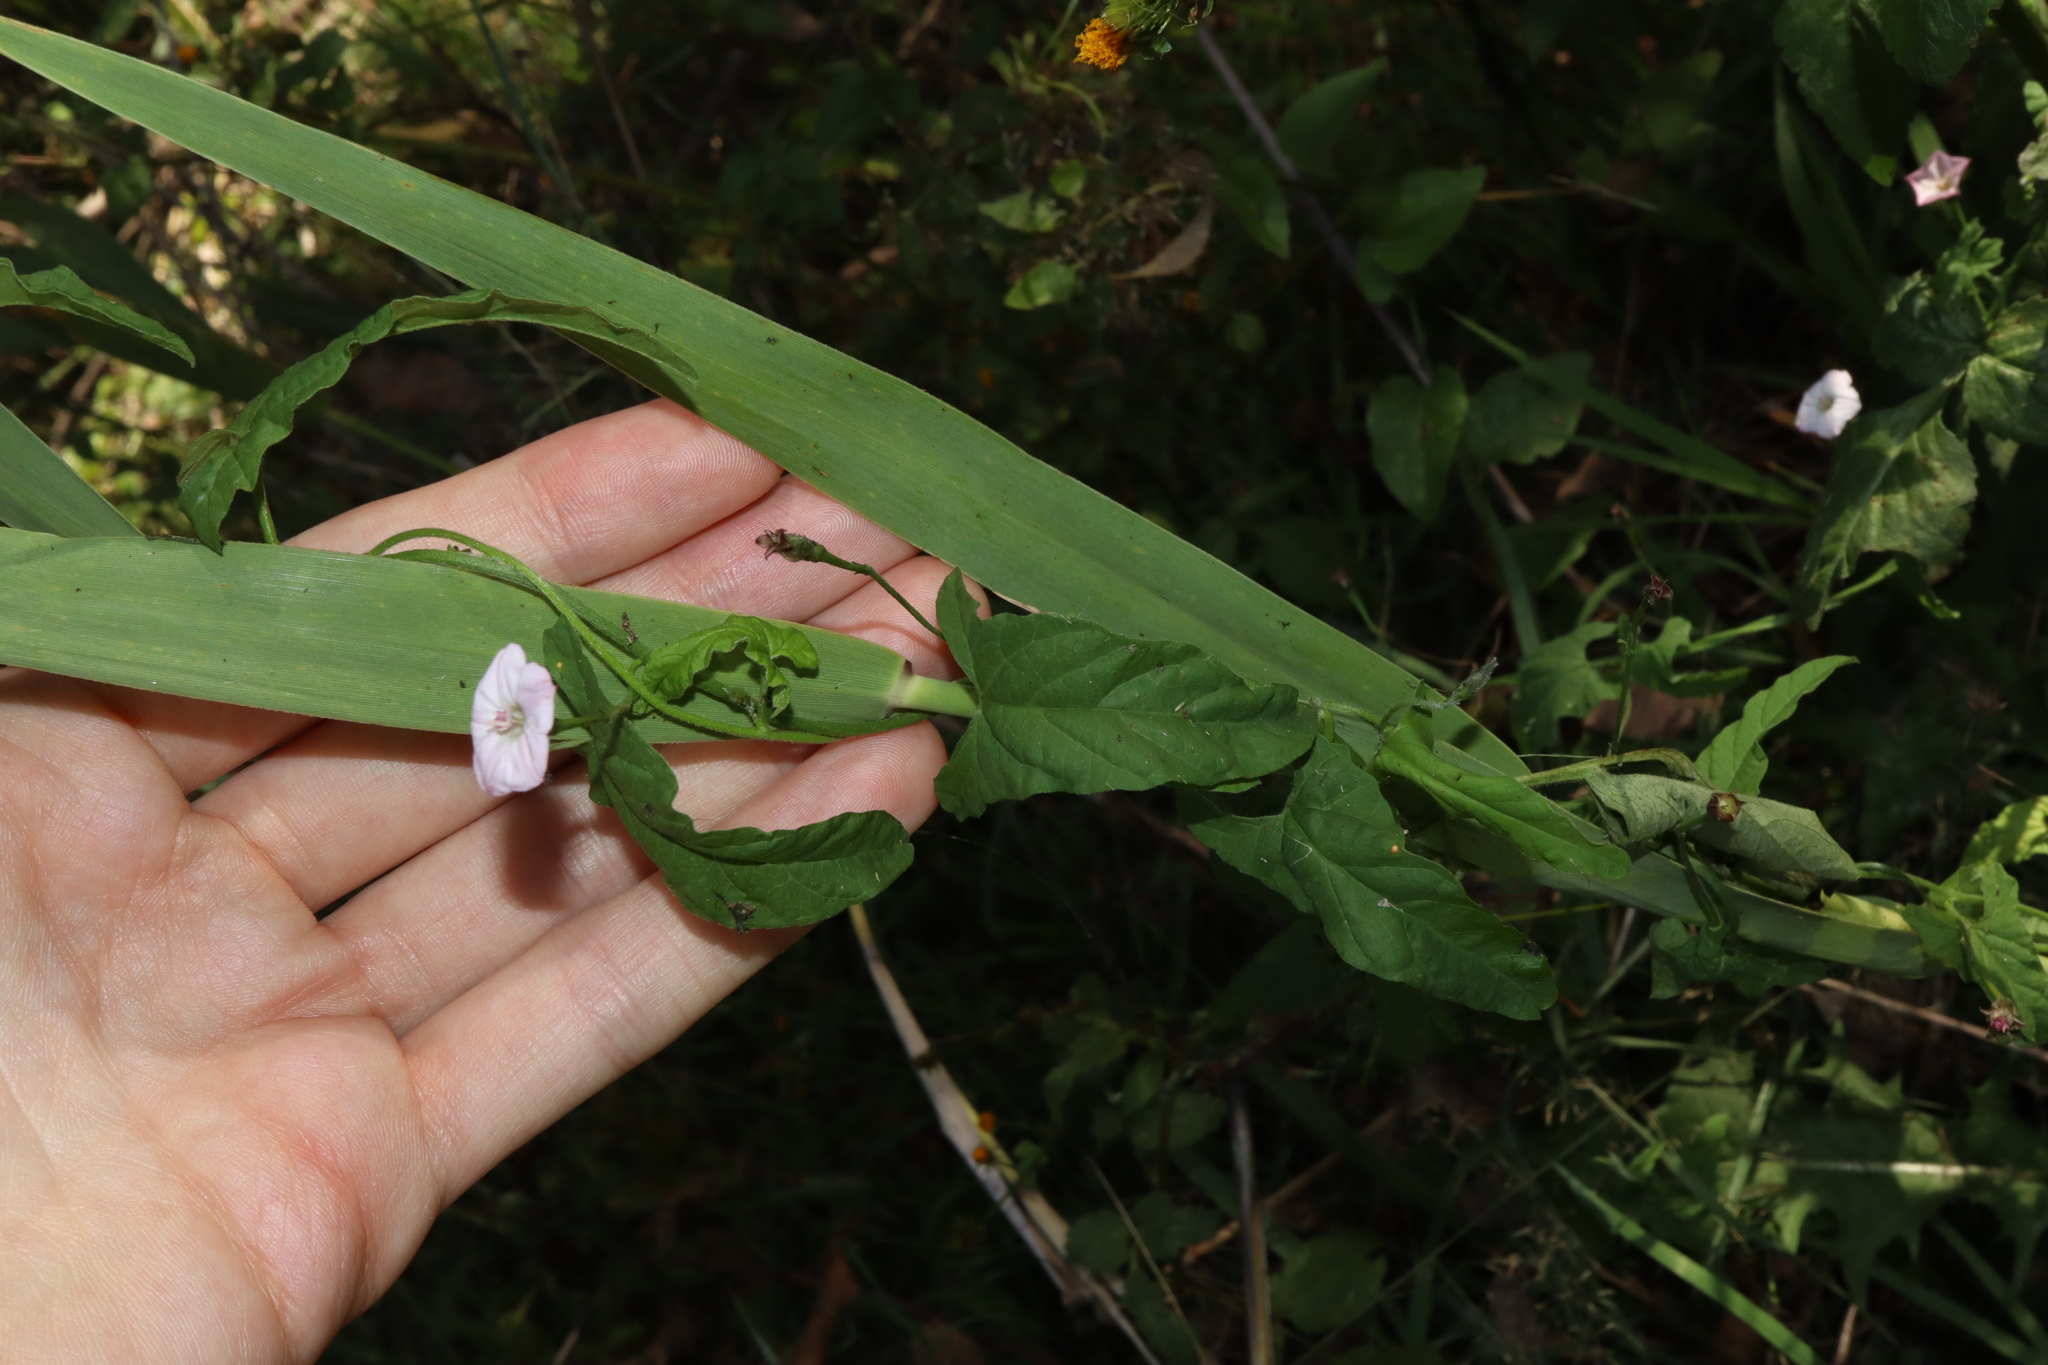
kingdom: Plantae
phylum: Tracheophyta
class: Magnoliopsida
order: Solanales
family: Convolvulaceae
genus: Convolvulus
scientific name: Convolvulus erubescens
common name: Australian bindweed
